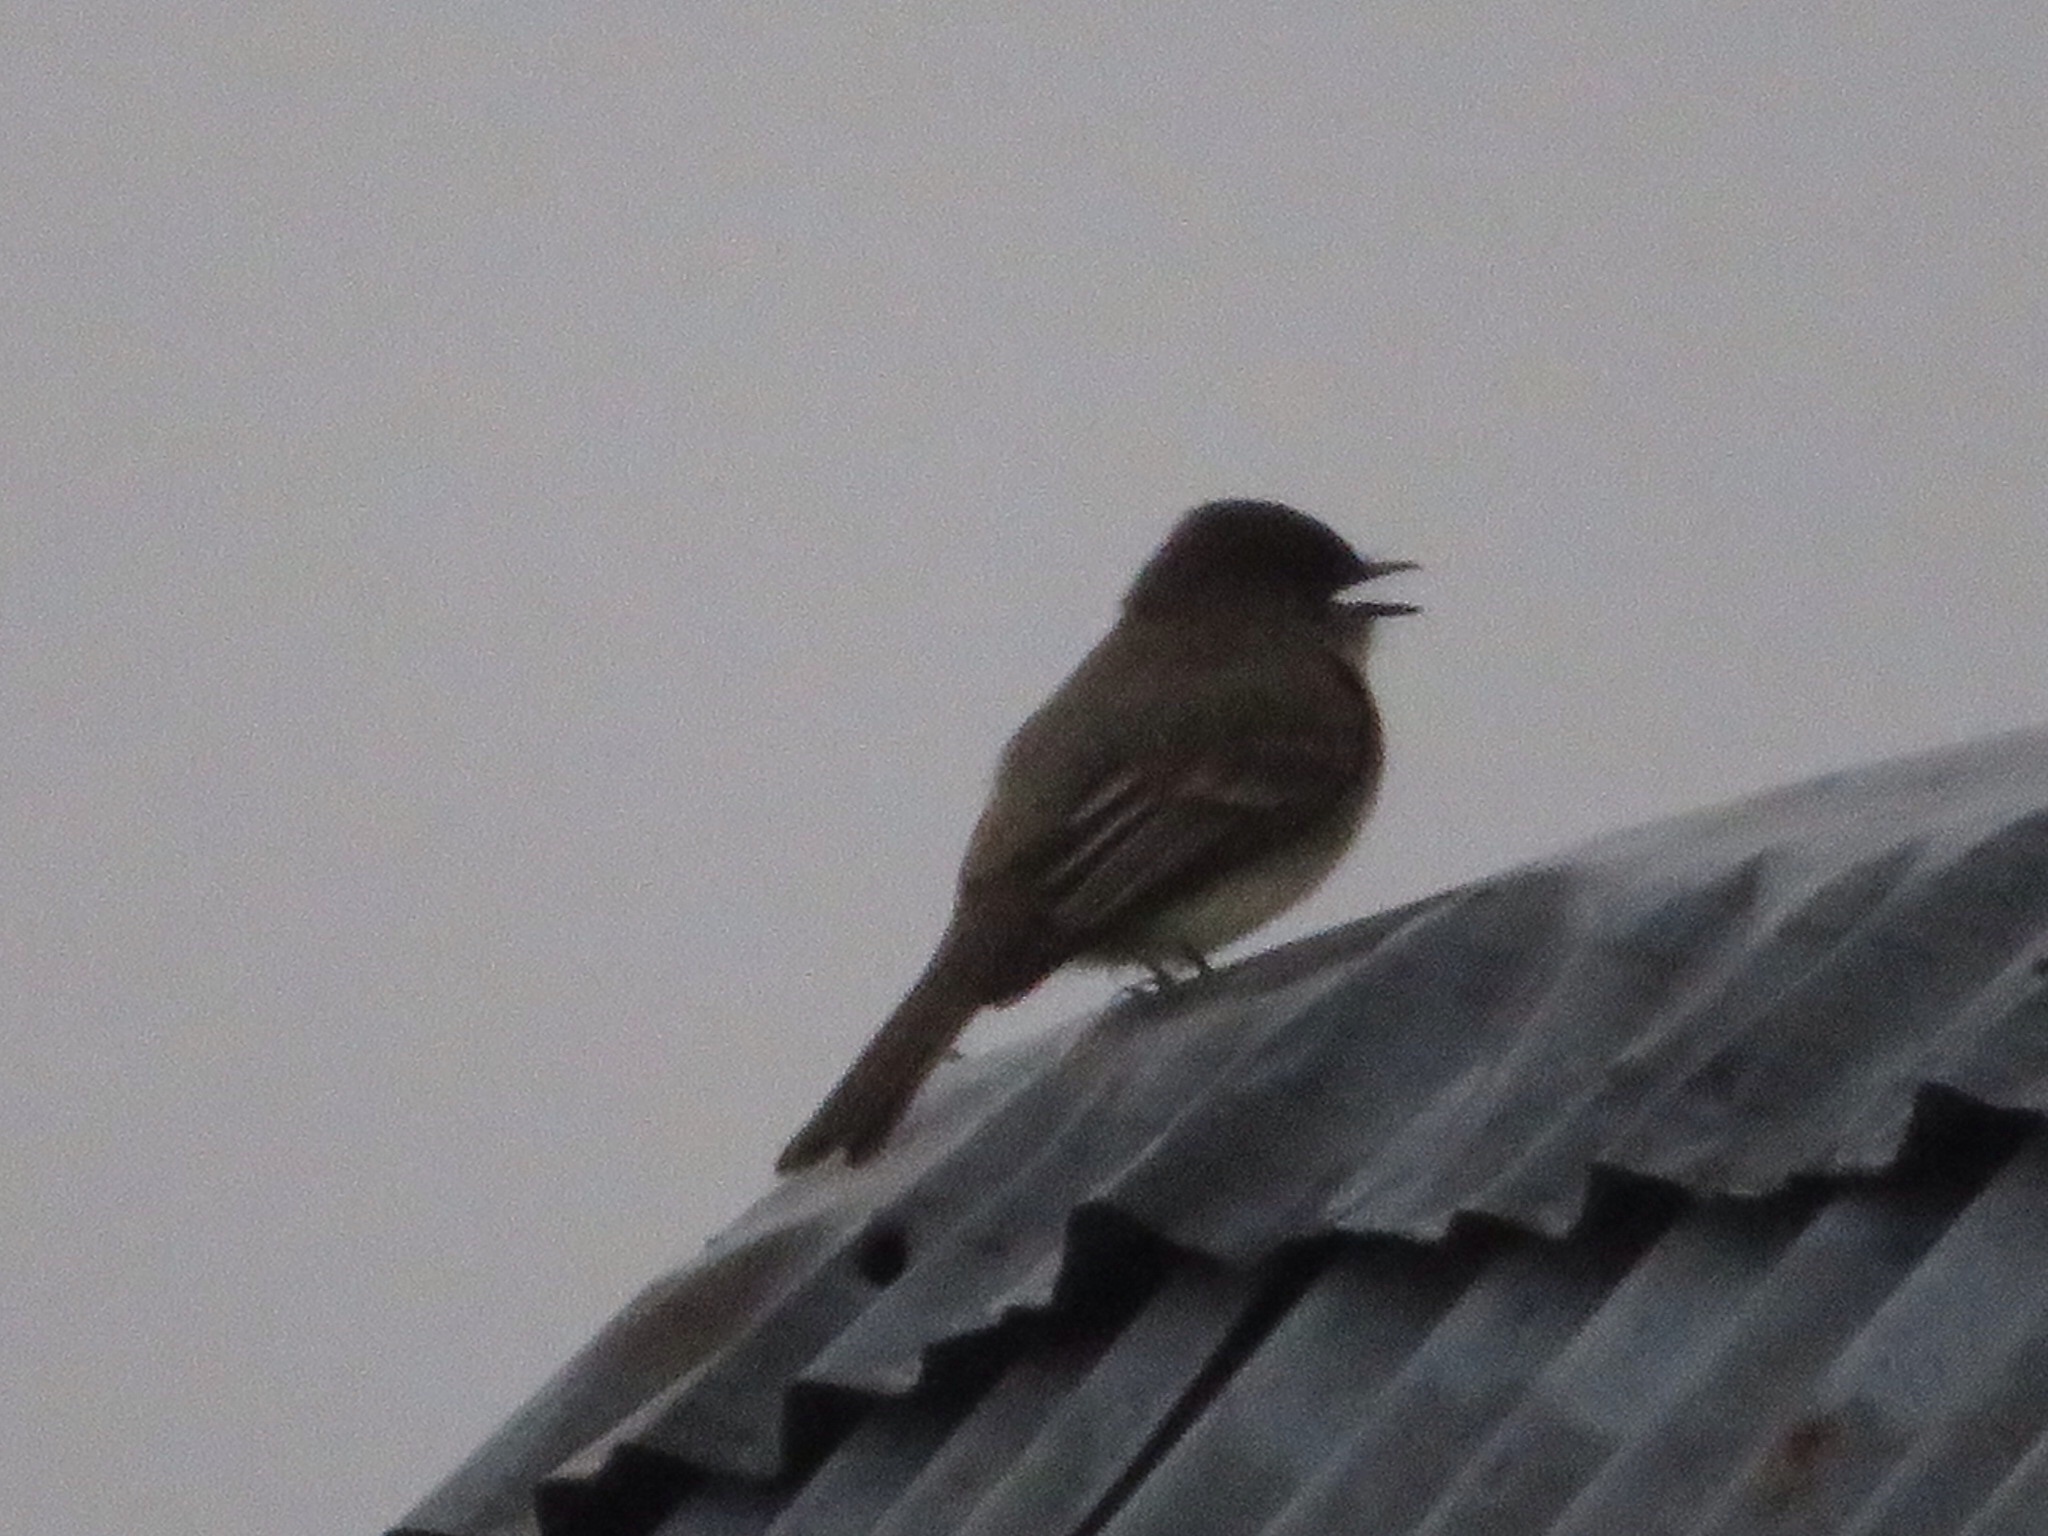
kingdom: Animalia
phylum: Chordata
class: Aves
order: Passeriformes
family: Tyrannidae
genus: Sayornis
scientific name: Sayornis phoebe
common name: Eastern phoebe
